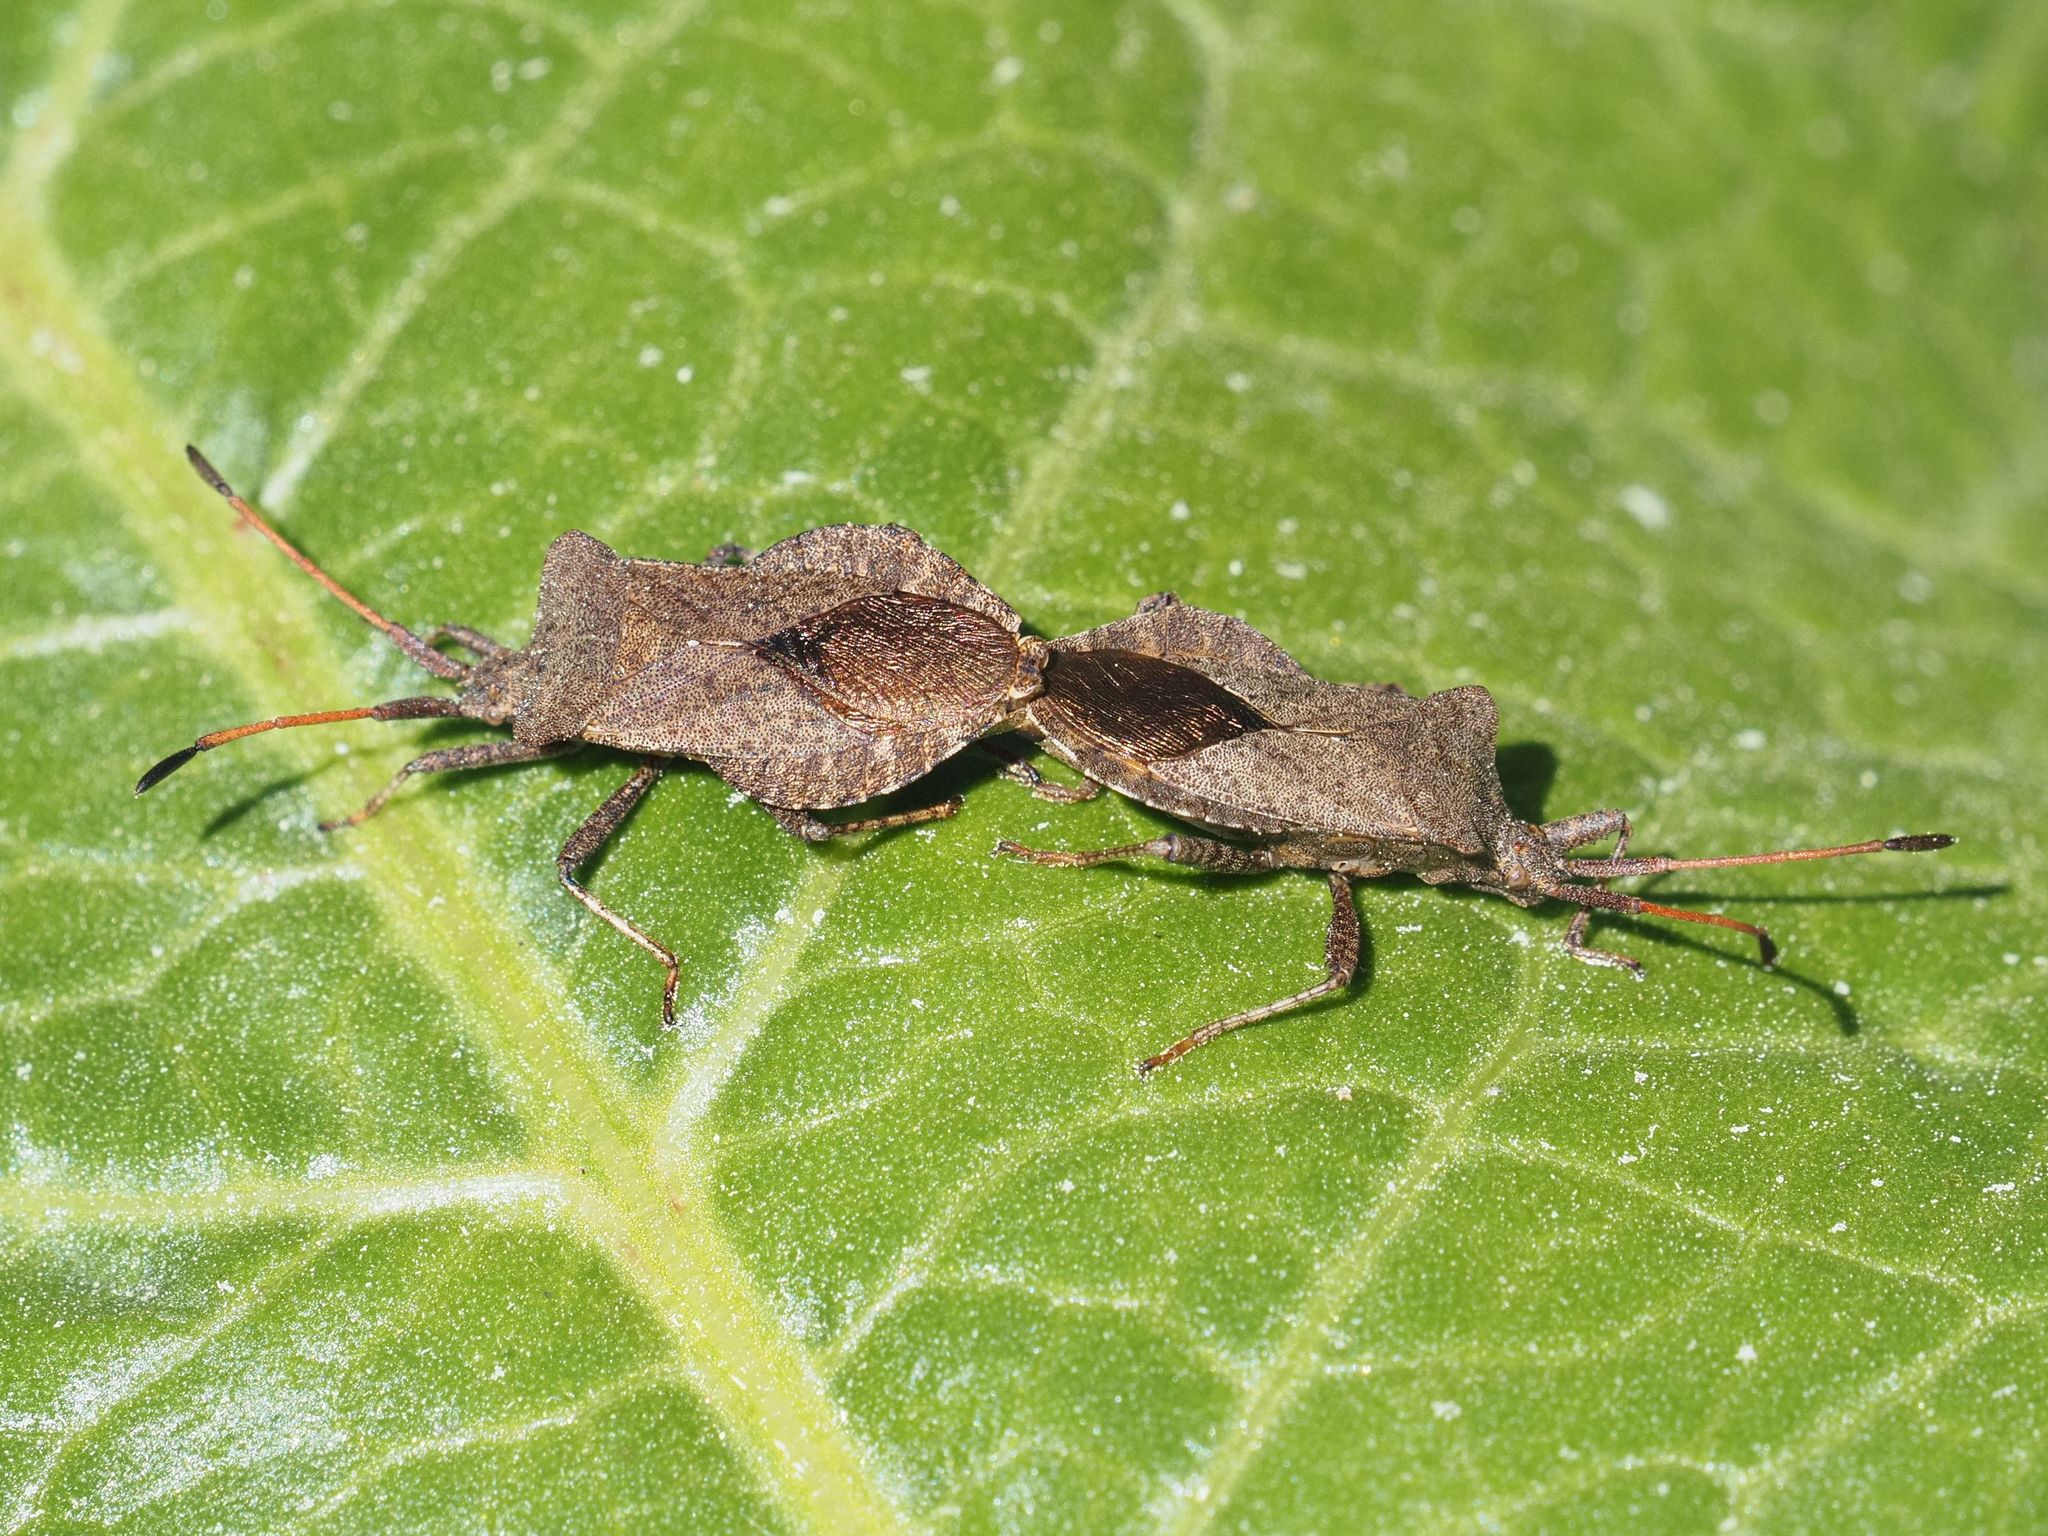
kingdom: Animalia
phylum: Arthropoda
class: Insecta
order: Hemiptera
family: Coreidae
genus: Coreus
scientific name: Coreus marginatus
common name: Dock bug
